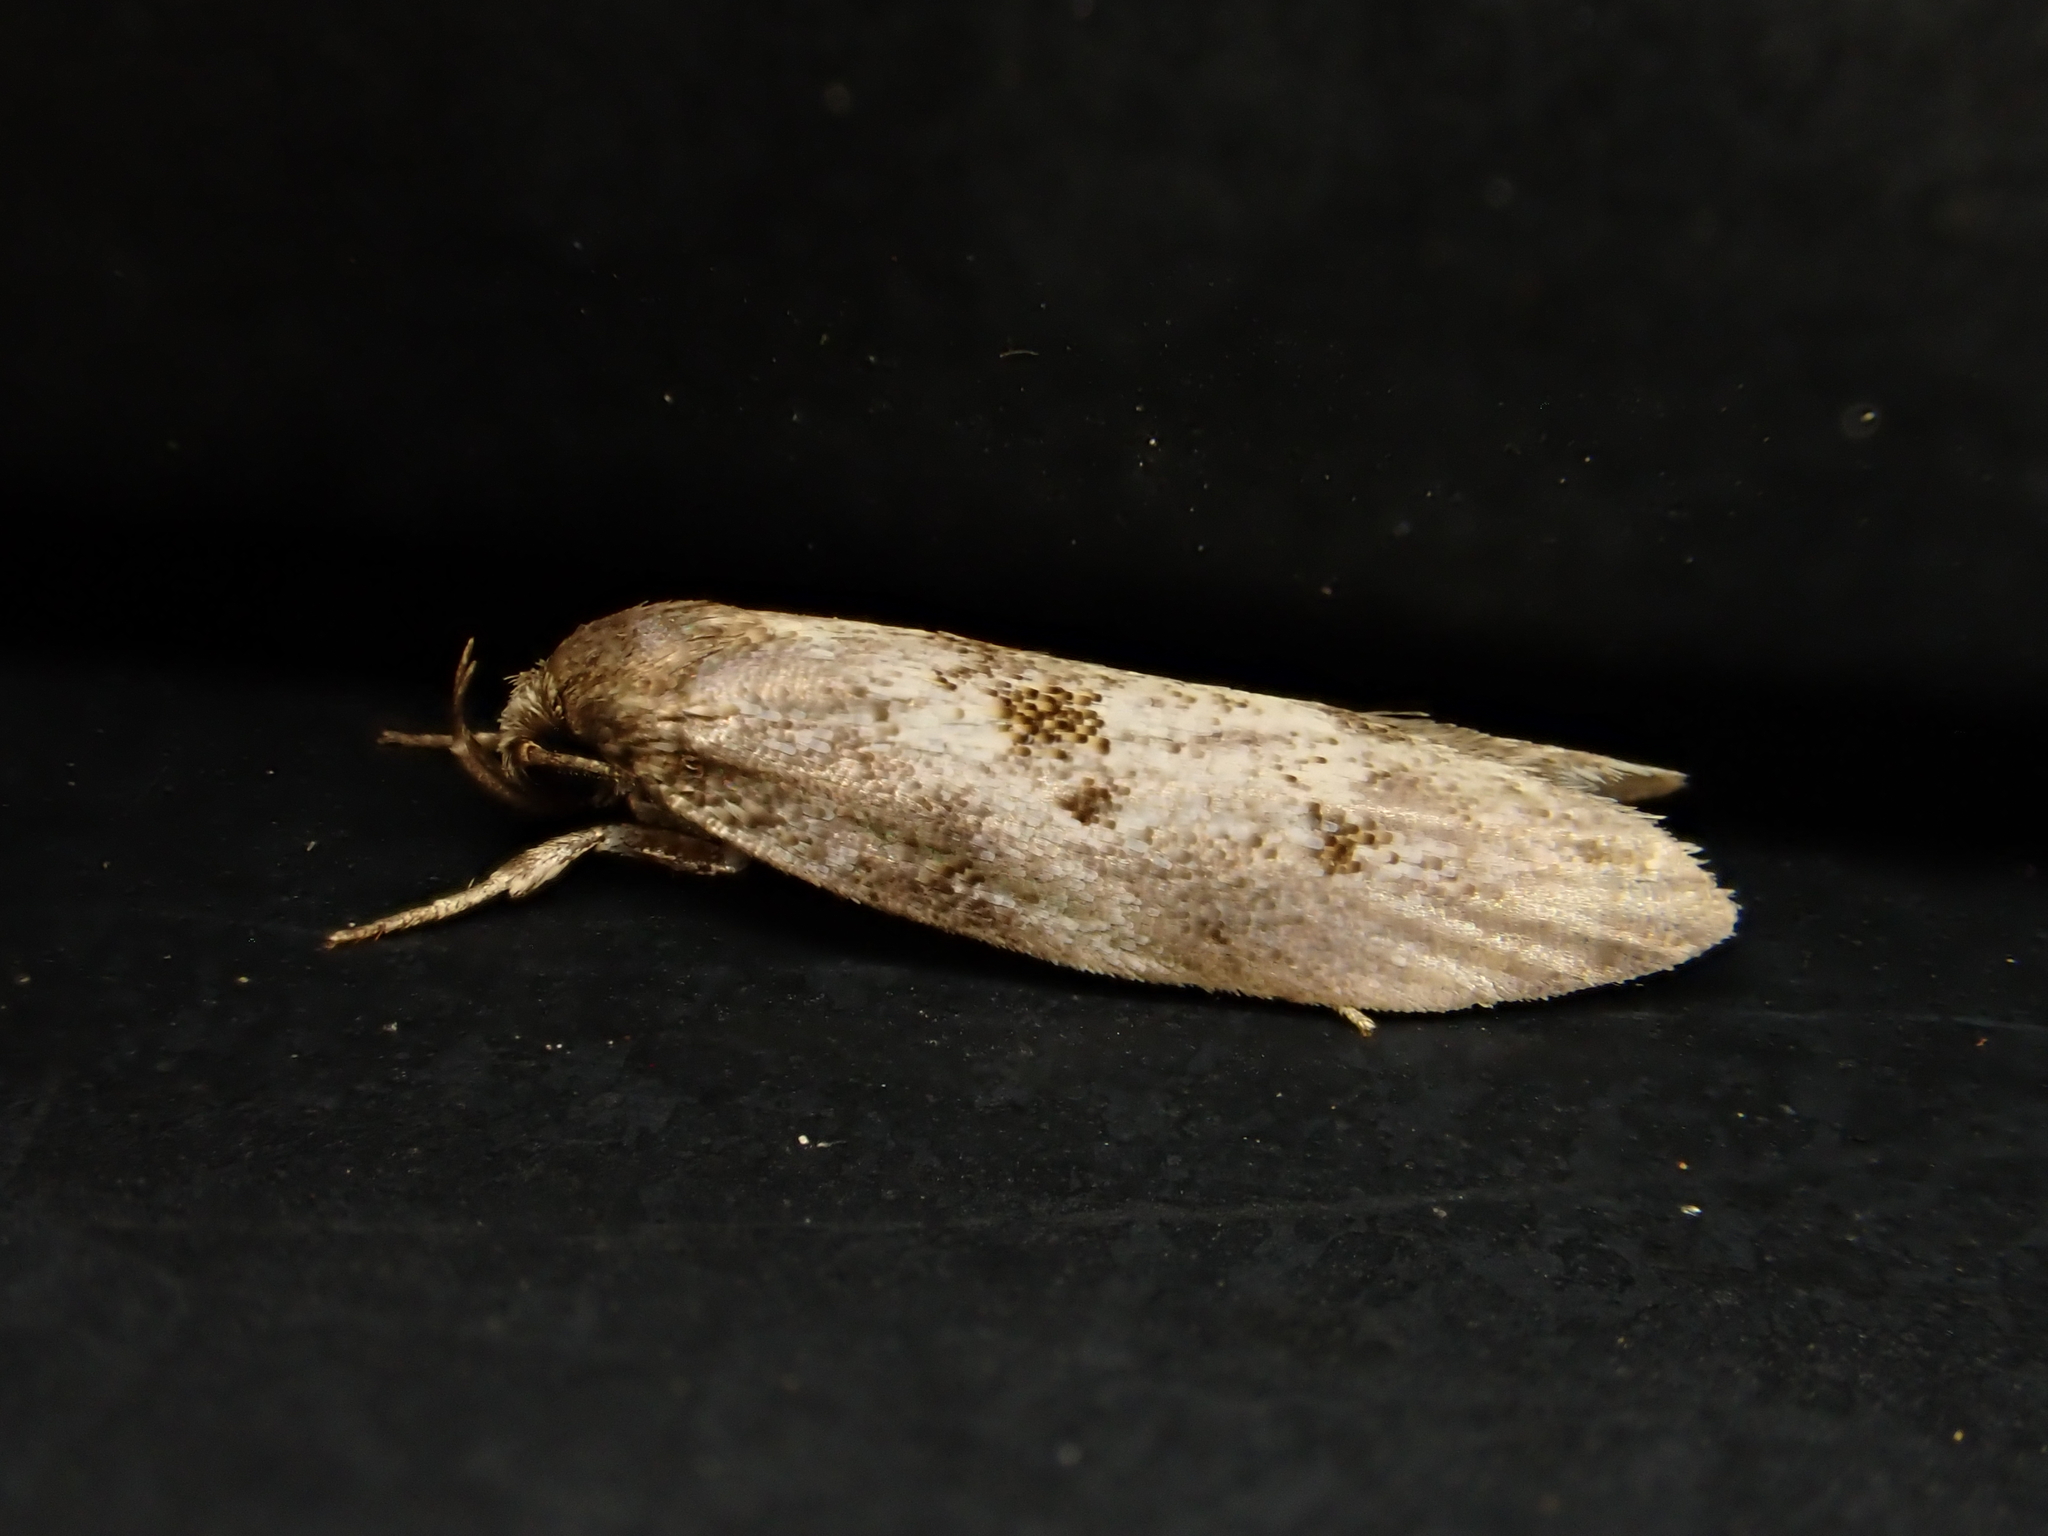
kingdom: Animalia
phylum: Arthropoda
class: Insecta
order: Lepidoptera
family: Oecophoridae
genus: Tingena
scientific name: Tingena clarkei
